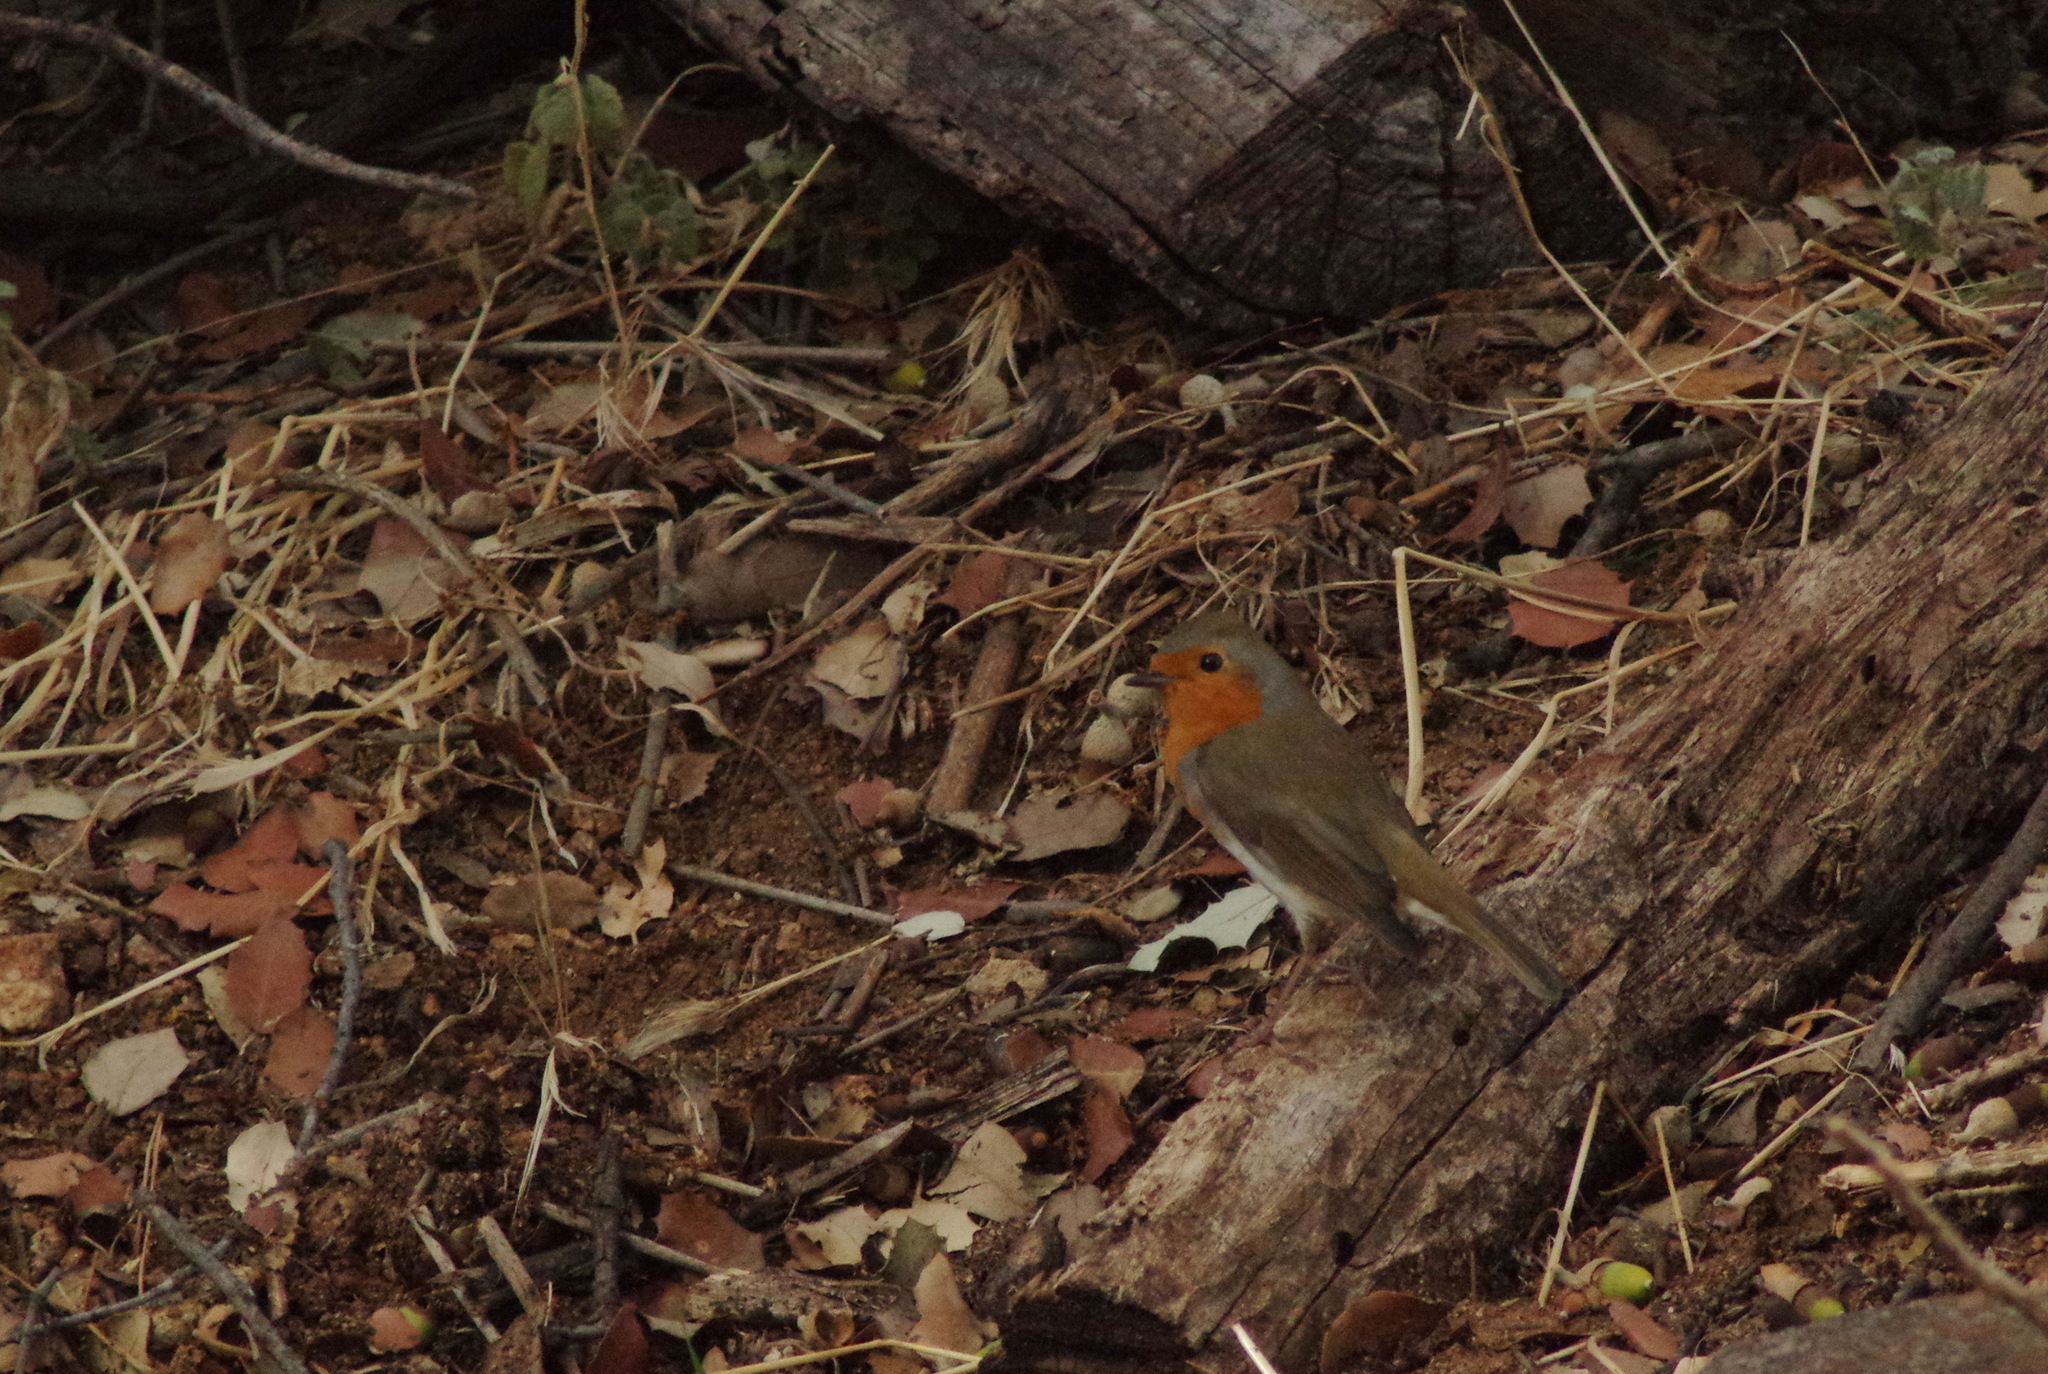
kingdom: Animalia
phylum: Chordata
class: Aves
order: Passeriformes
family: Muscicapidae
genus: Erithacus
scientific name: Erithacus rubecula
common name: European robin
